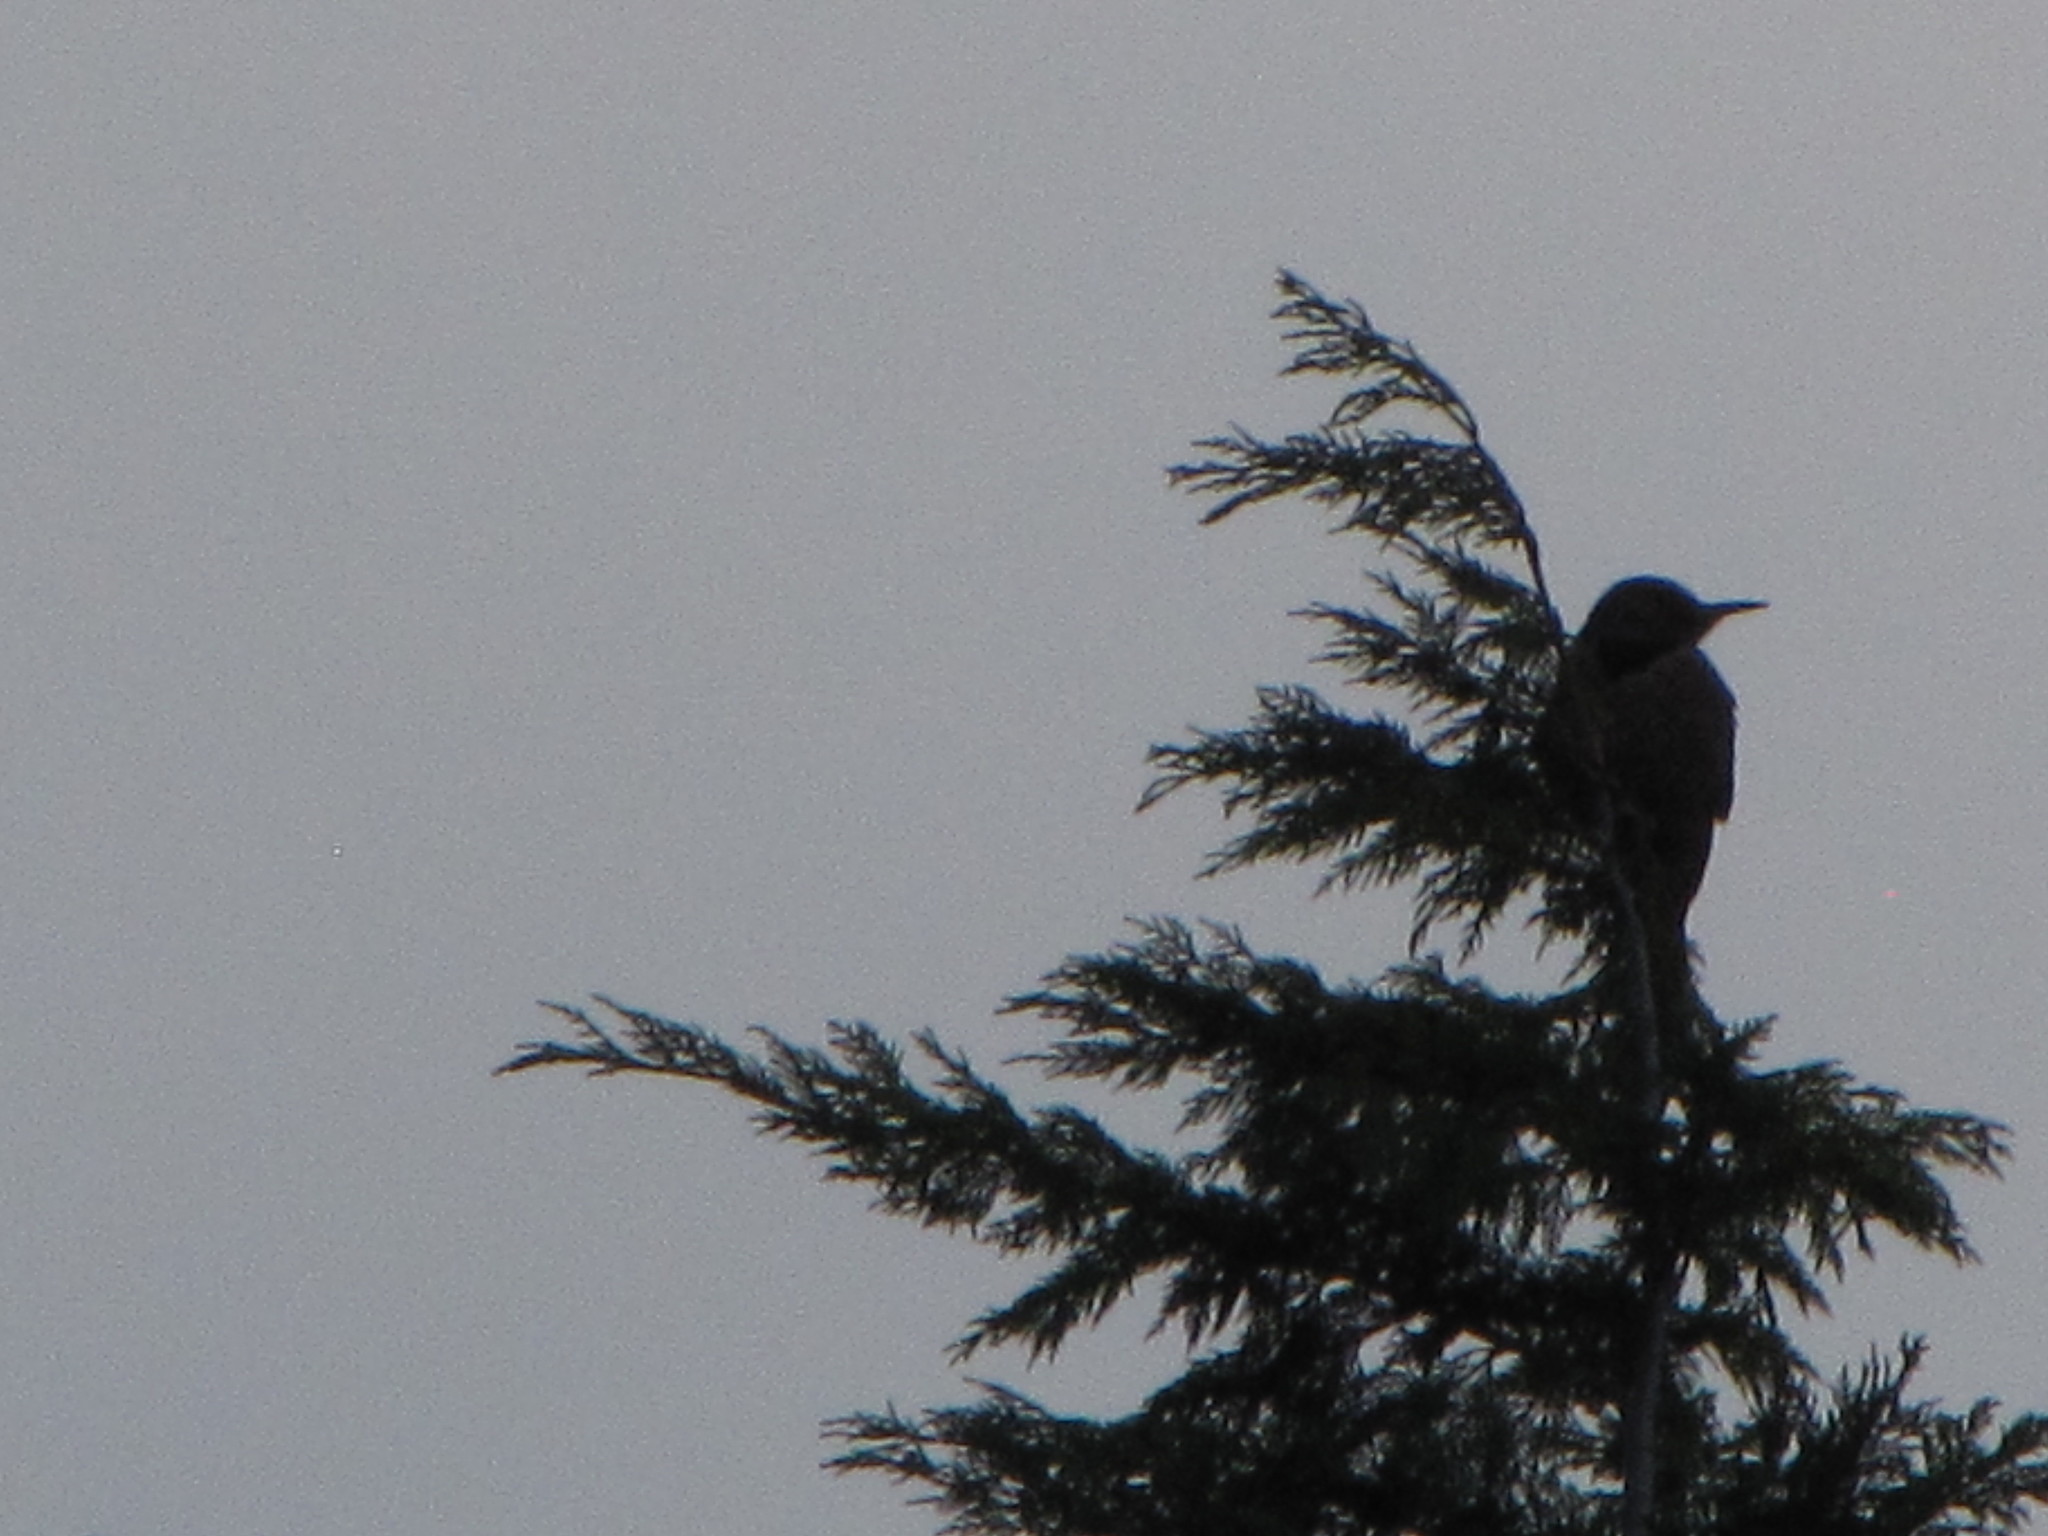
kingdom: Animalia
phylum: Chordata
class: Aves
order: Piciformes
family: Picidae
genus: Colaptes
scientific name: Colaptes auratus
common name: Northern flicker
